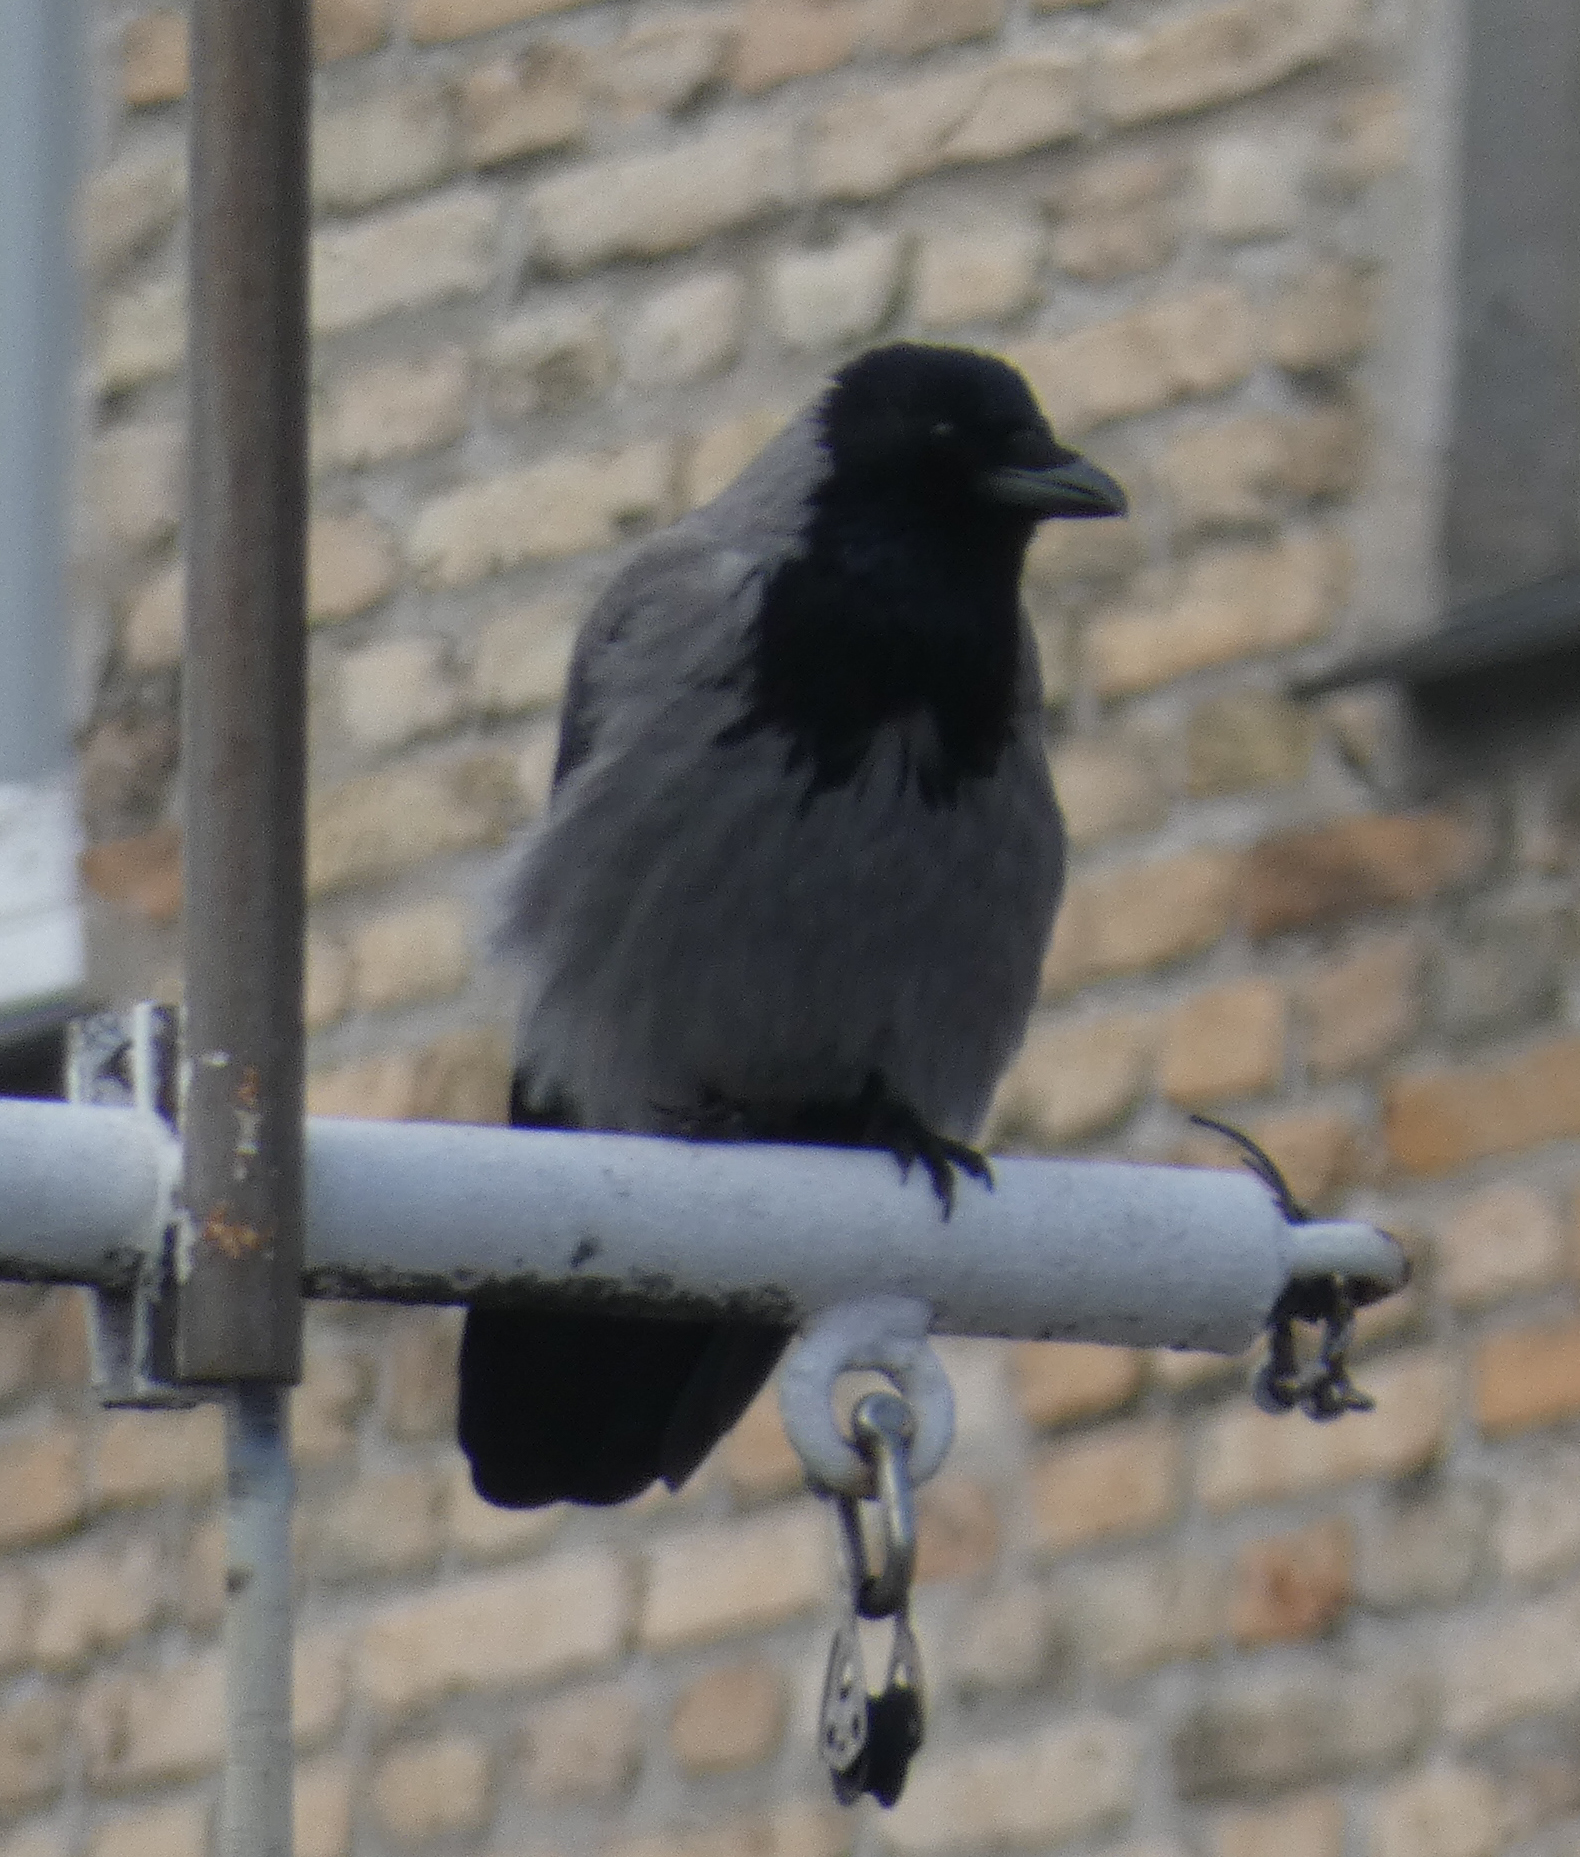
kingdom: Animalia
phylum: Chordata
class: Aves
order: Passeriformes
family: Corvidae
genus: Corvus
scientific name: Corvus cornix
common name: Hooded crow
